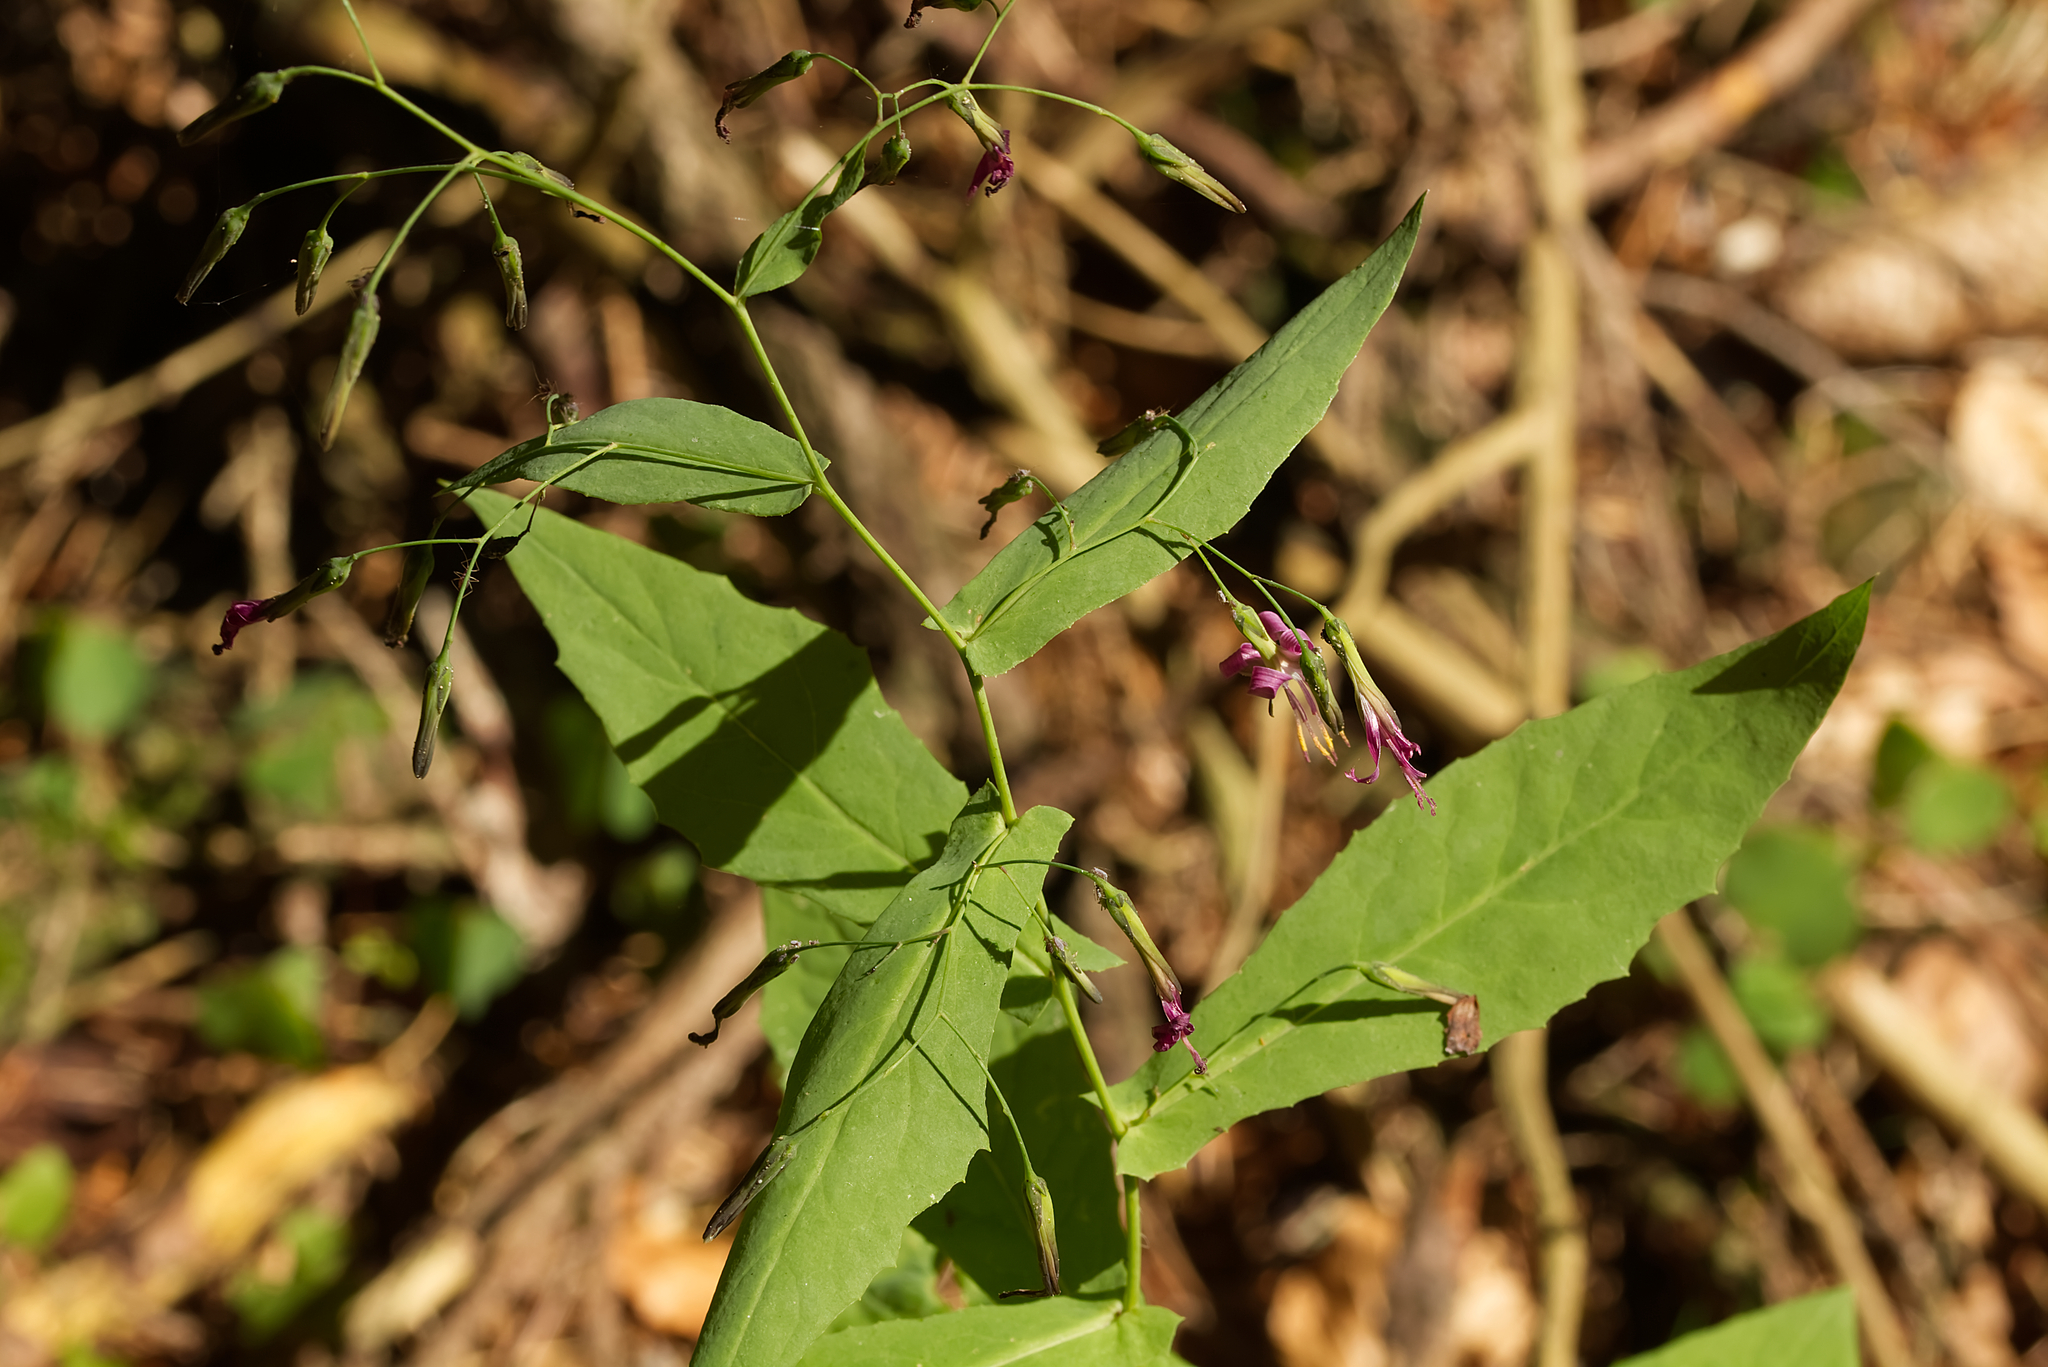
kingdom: Plantae
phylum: Tracheophyta
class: Magnoliopsida
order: Asterales
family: Asteraceae
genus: Prenanthes
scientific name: Prenanthes purpurea
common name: Purple lettuce
